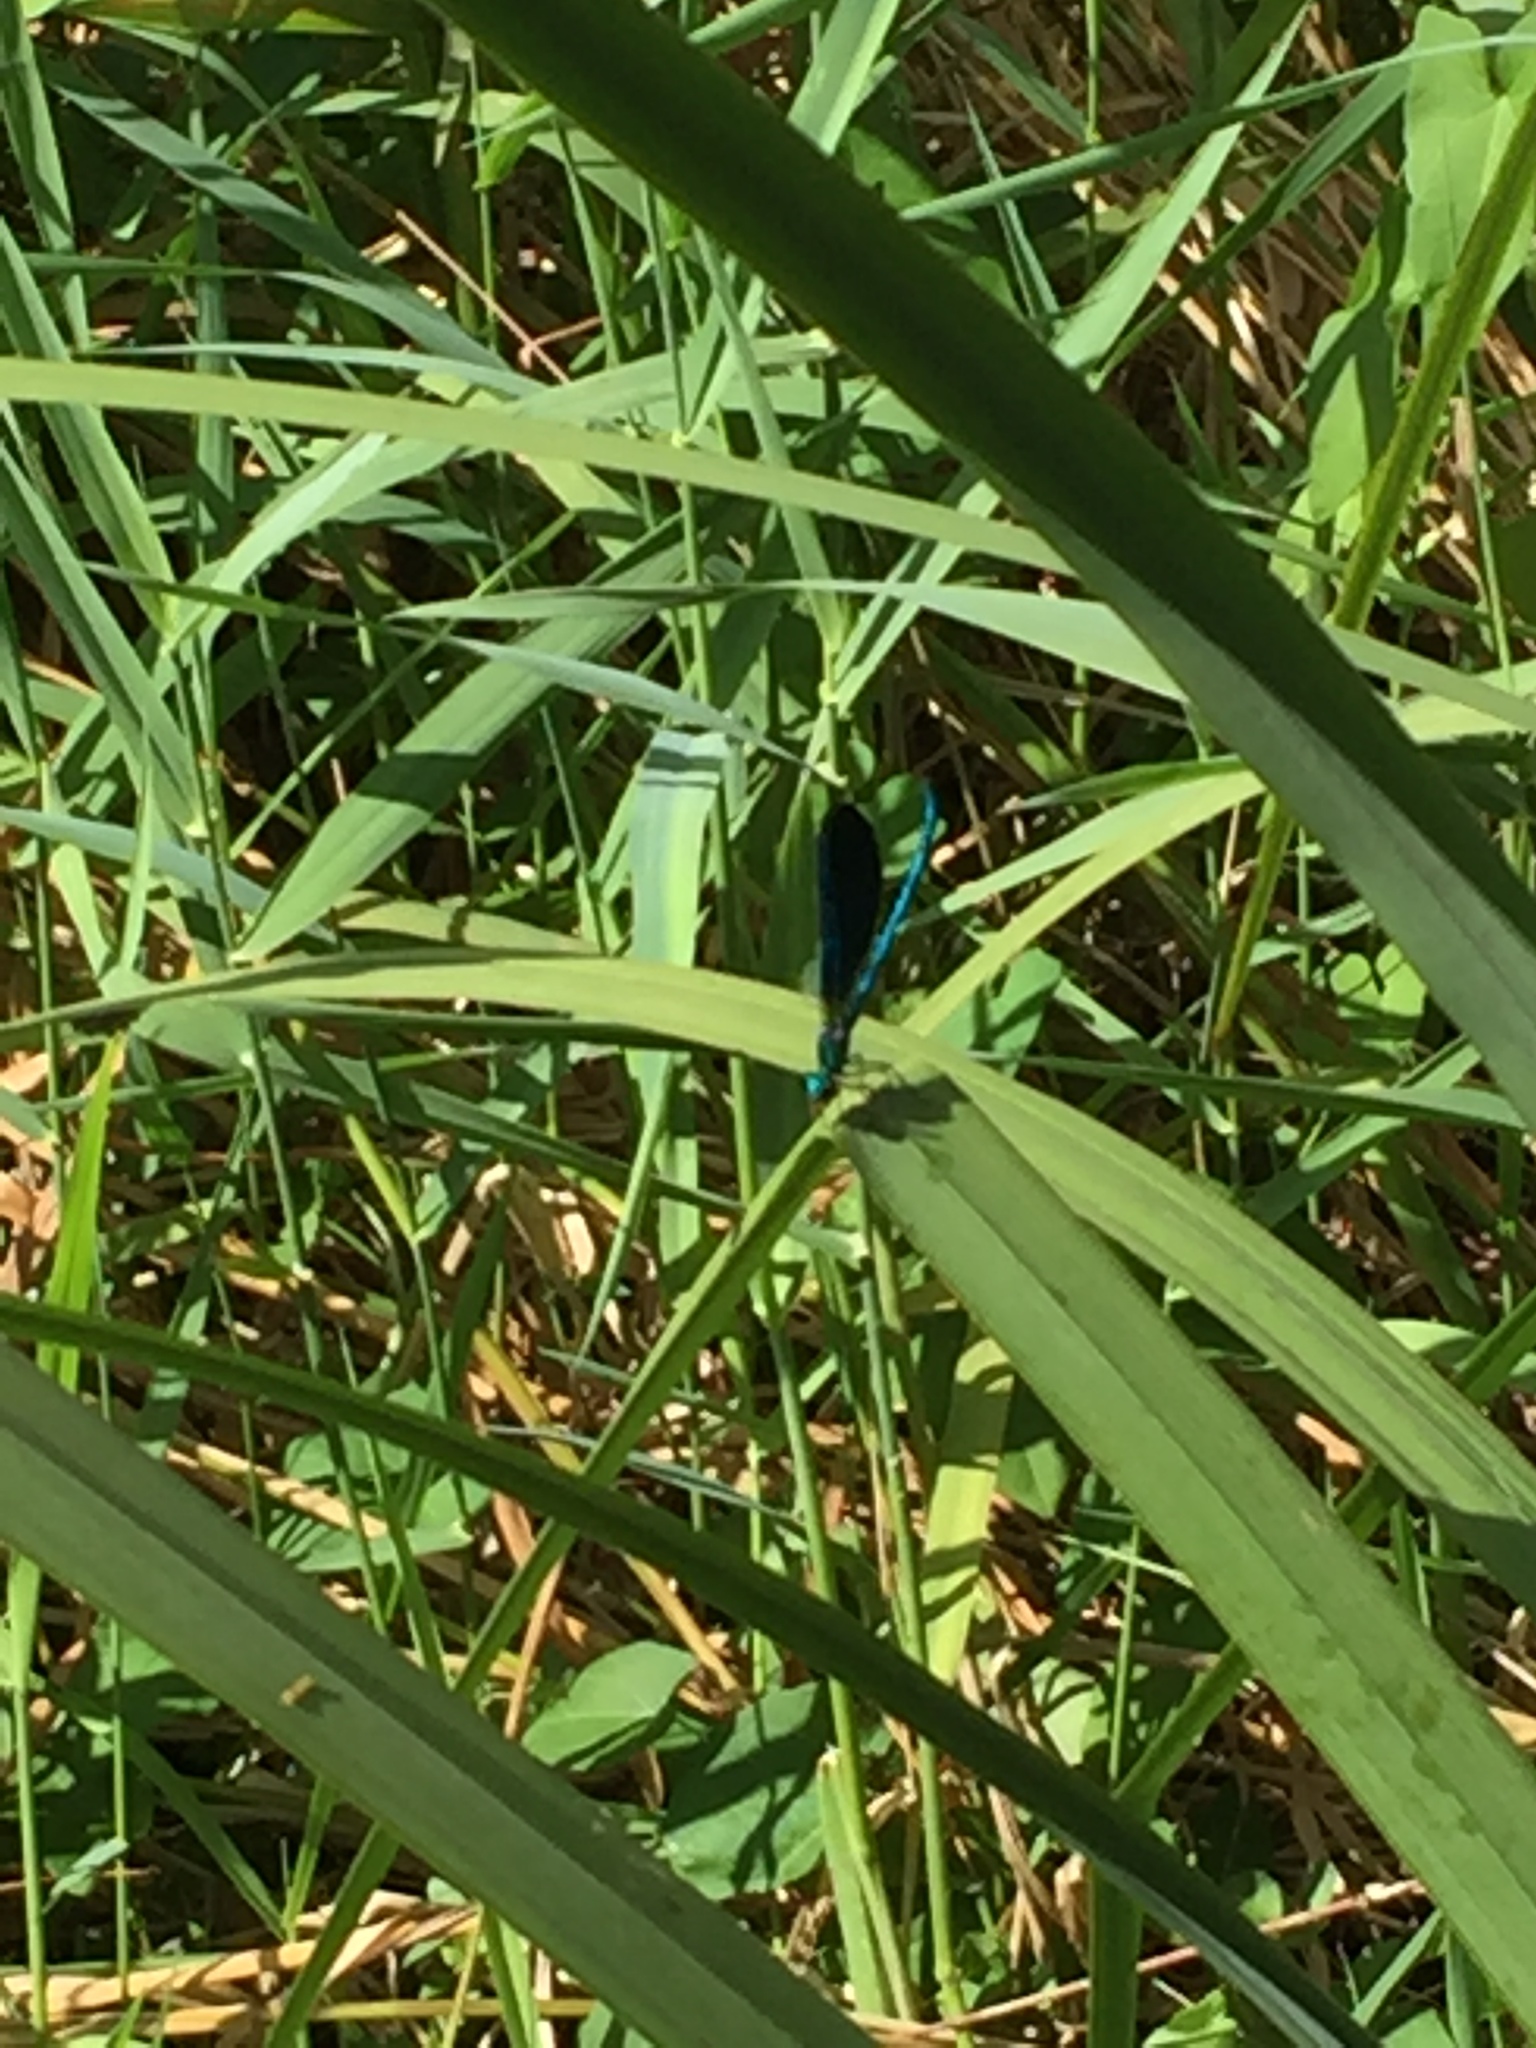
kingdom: Animalia
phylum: Arthropoda
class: Insecta
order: Odonata
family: Calopterygidae
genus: Calopteryx
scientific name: Calopteryx virgo
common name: Beautiful demoiselle
